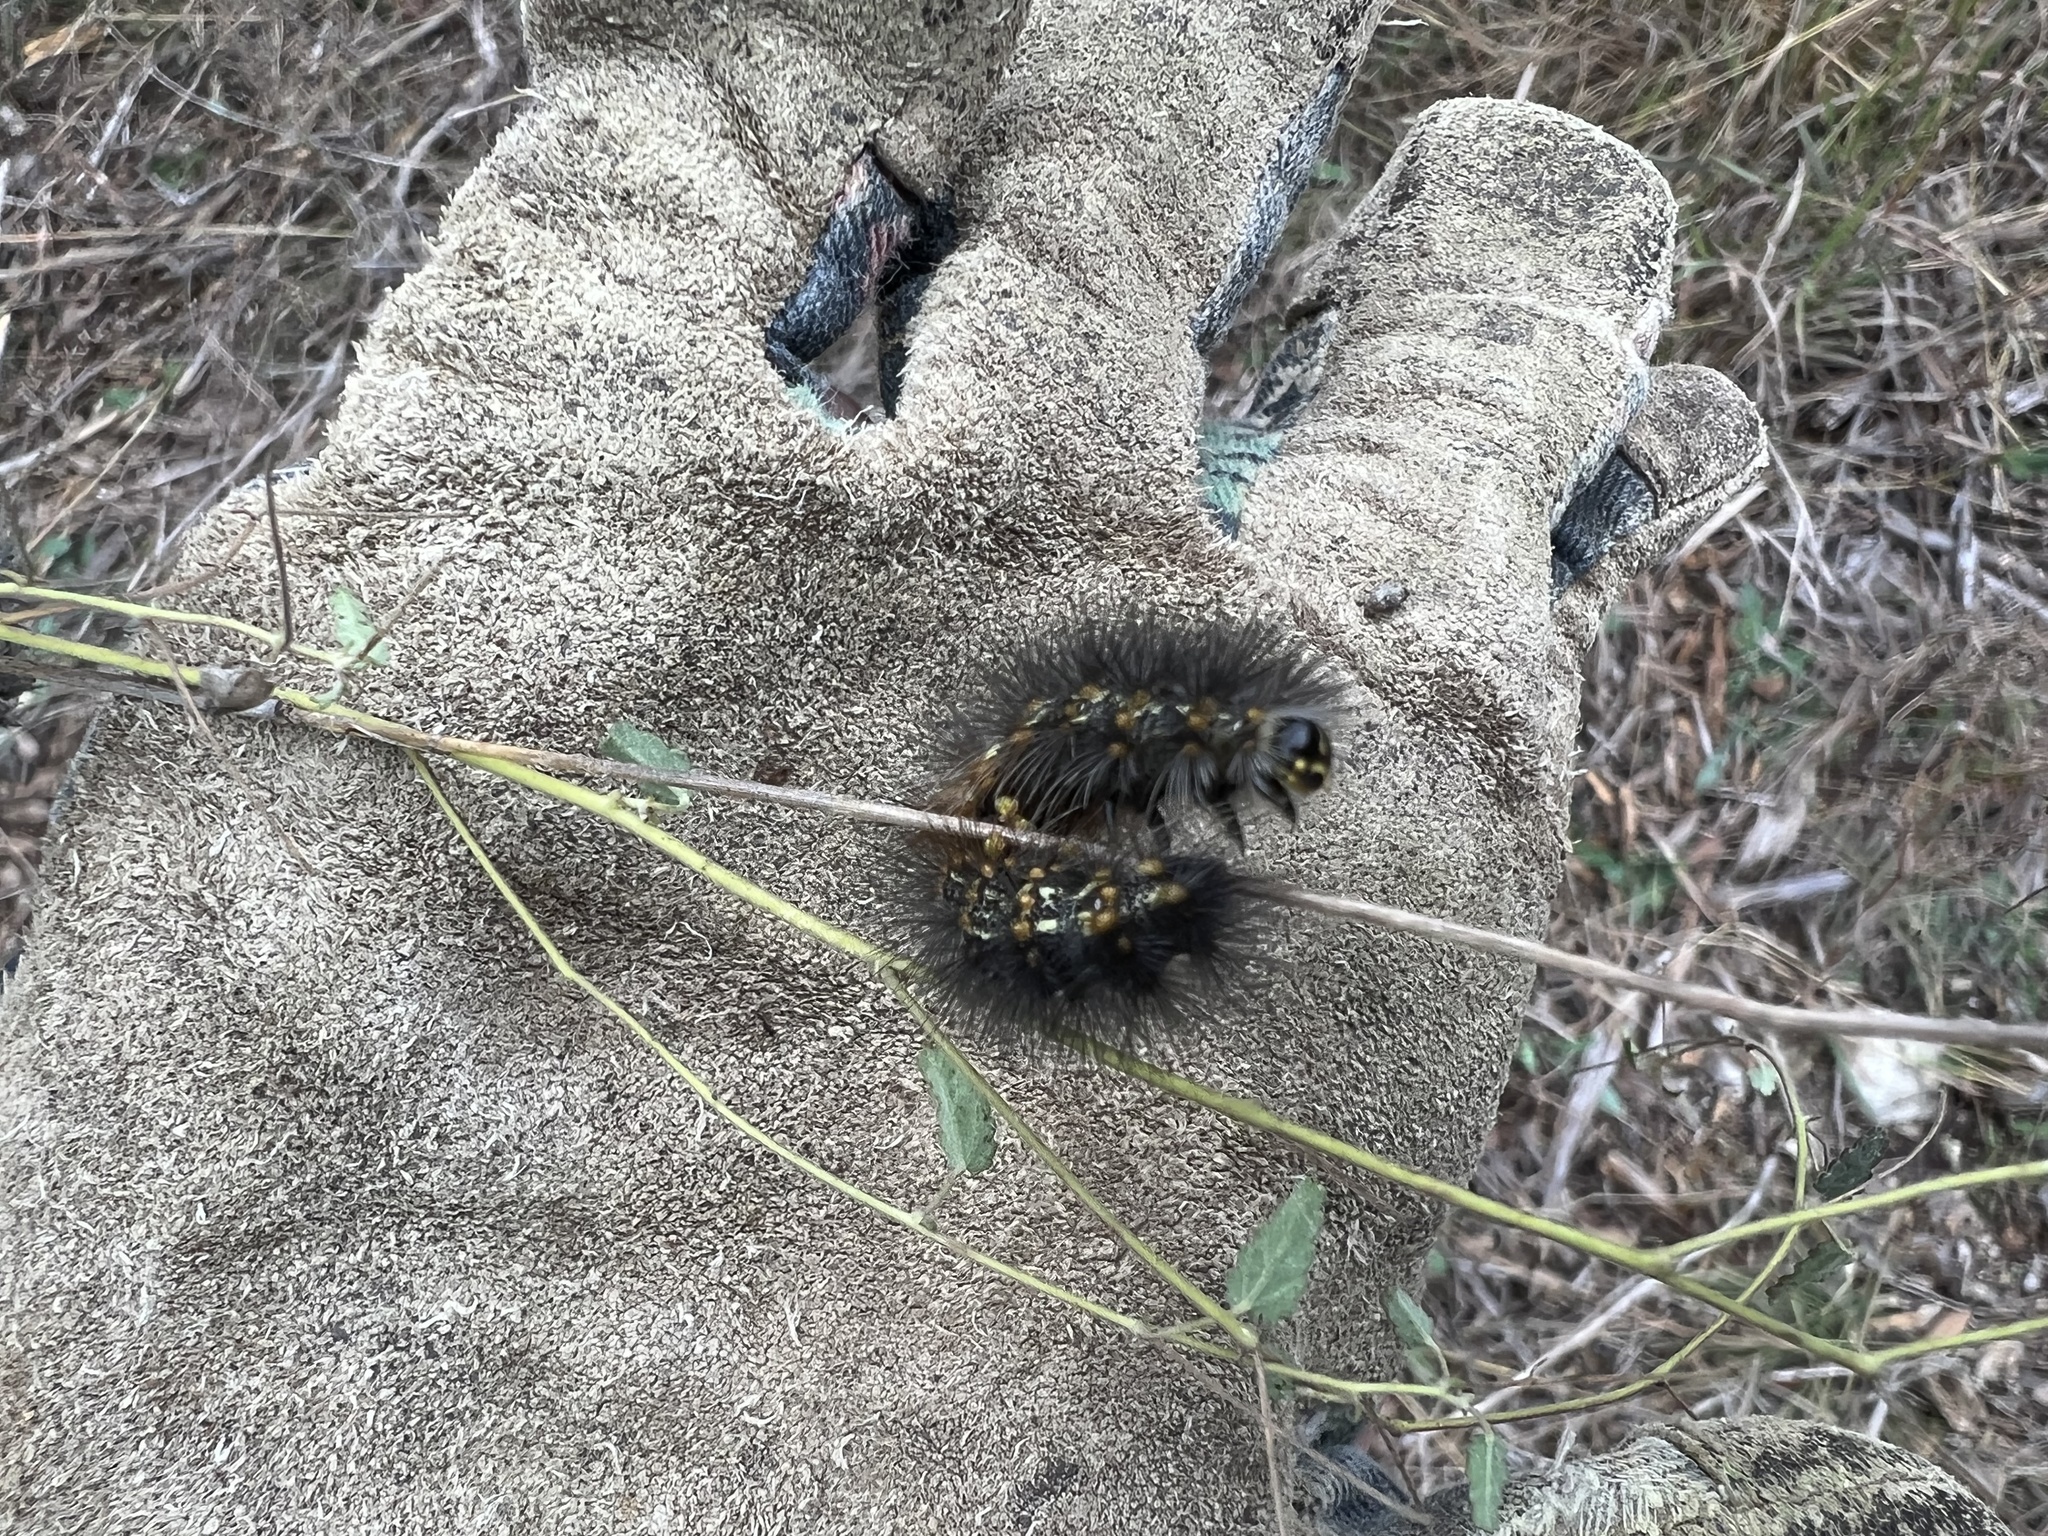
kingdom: Animalia
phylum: Arthropoda
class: Insecta
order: Lepidoptera
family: Erebidae
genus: Estigmene
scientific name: Estigmene acrea
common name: Salt marsh moth
